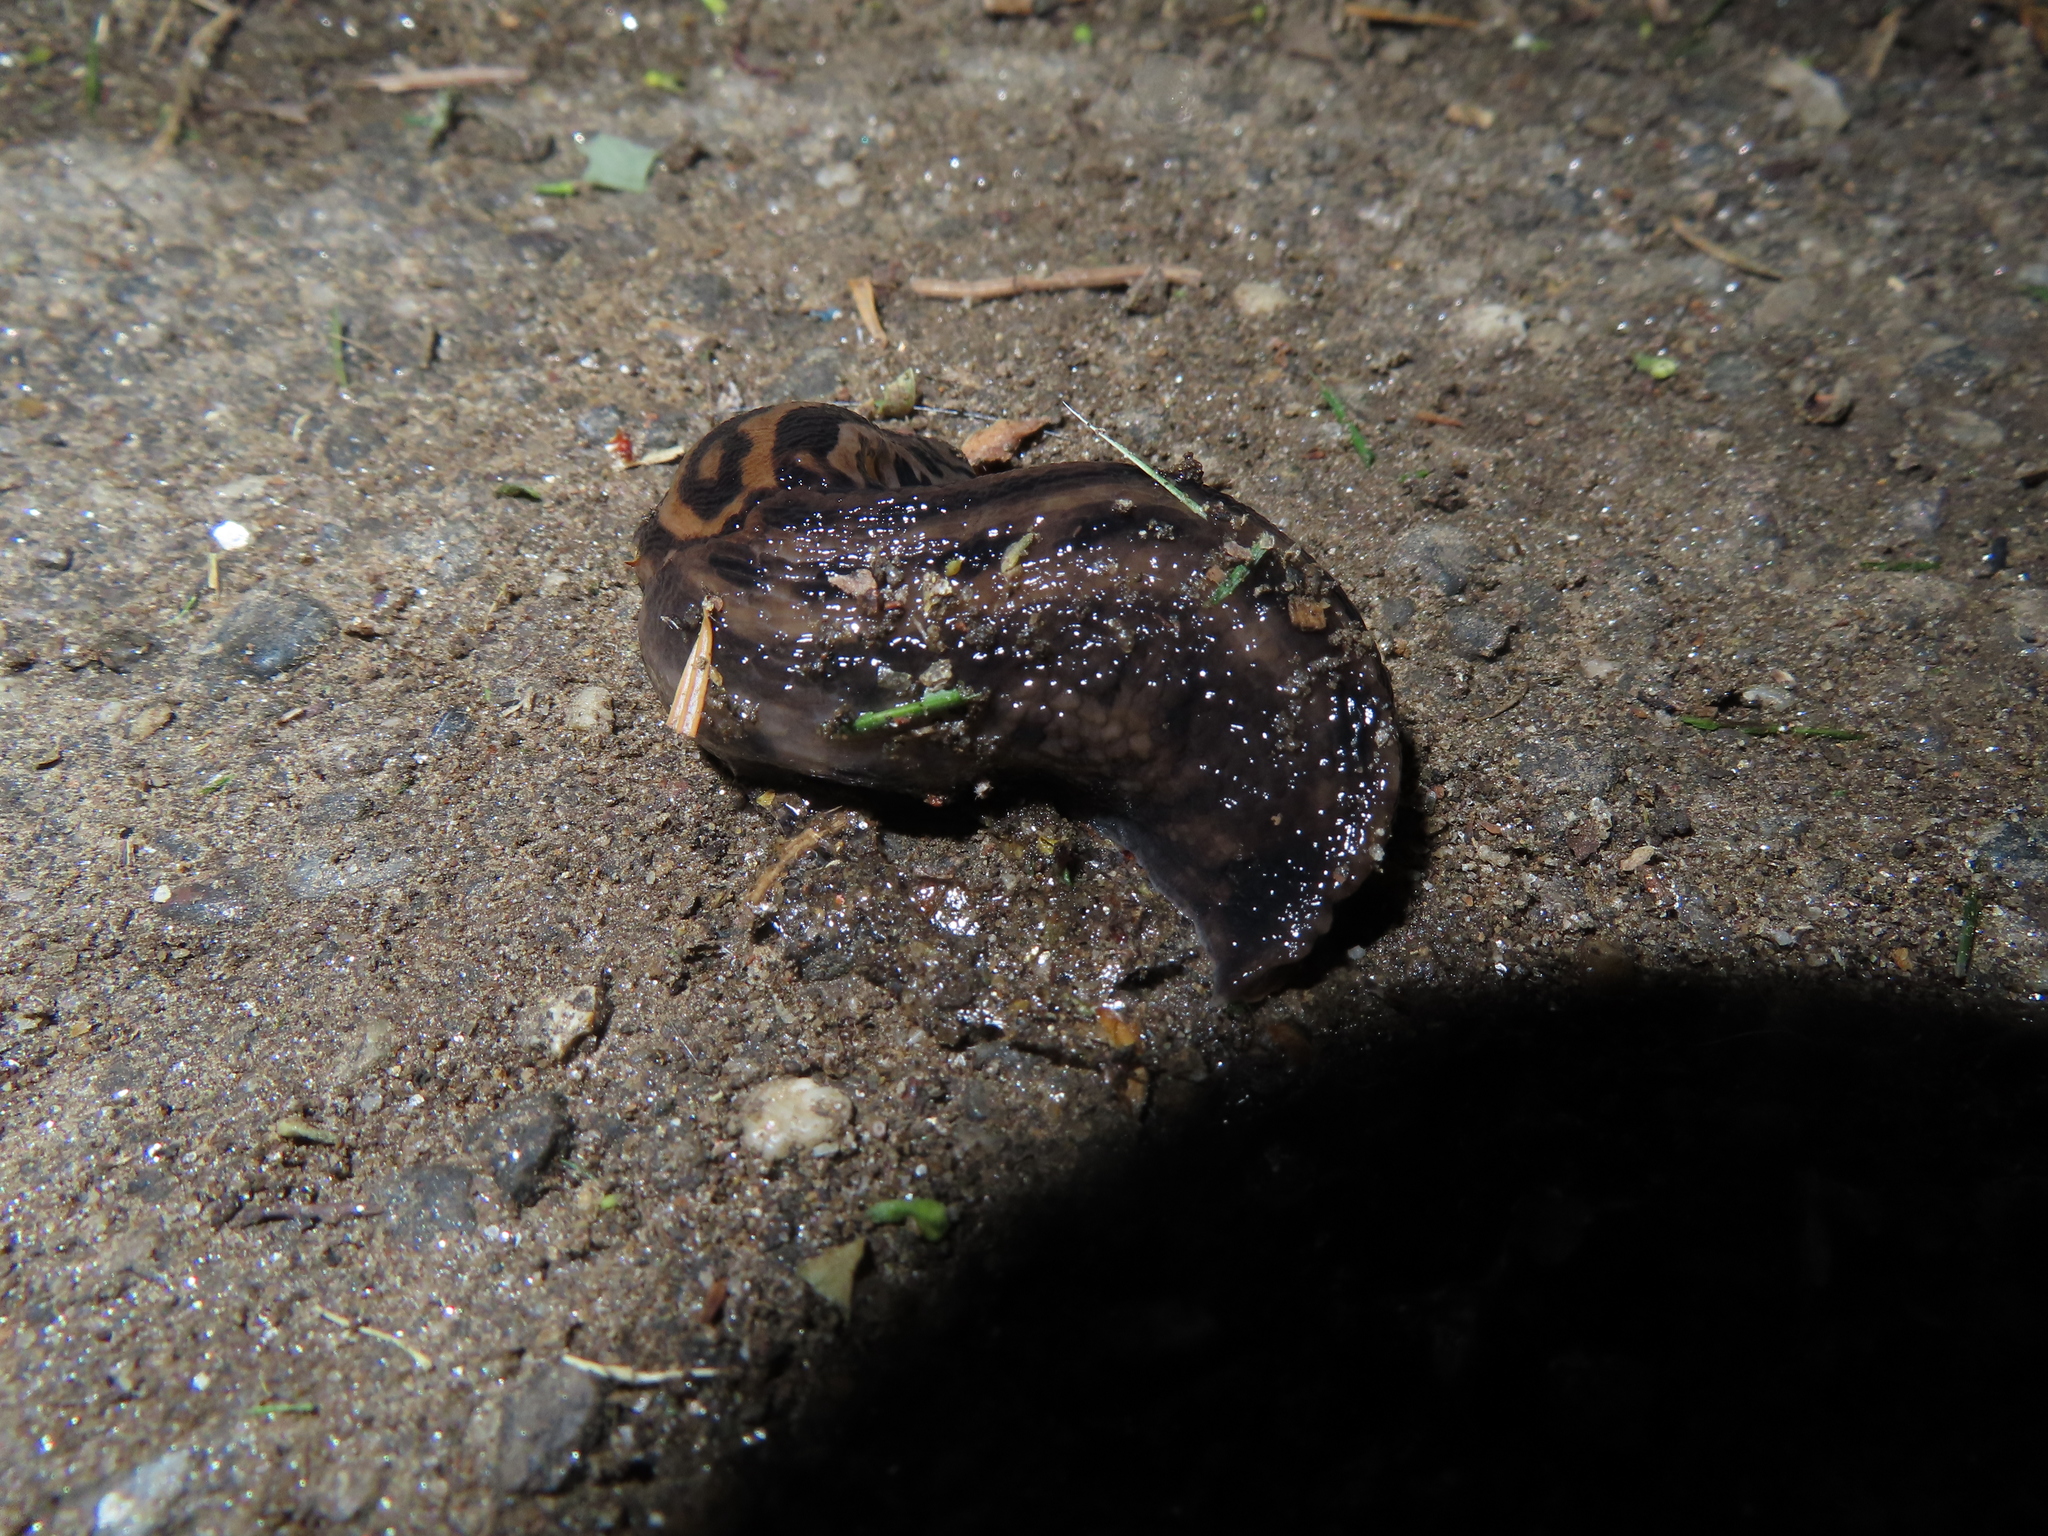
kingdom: Animalia
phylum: Mollusca
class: Gastropoda
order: Stylommatophora
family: Limacidae
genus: Limax
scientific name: Limax maximus
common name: Great grey slug
